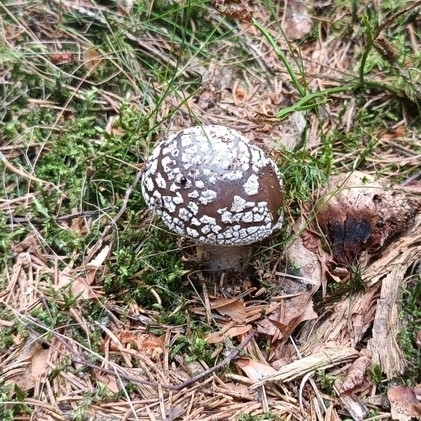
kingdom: Fungi
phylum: Basidiomycota
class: Agaricomycetes
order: Agaricales
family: Amanitaceae
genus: Amanita
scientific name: Amanita excelsa
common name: European false blusher
